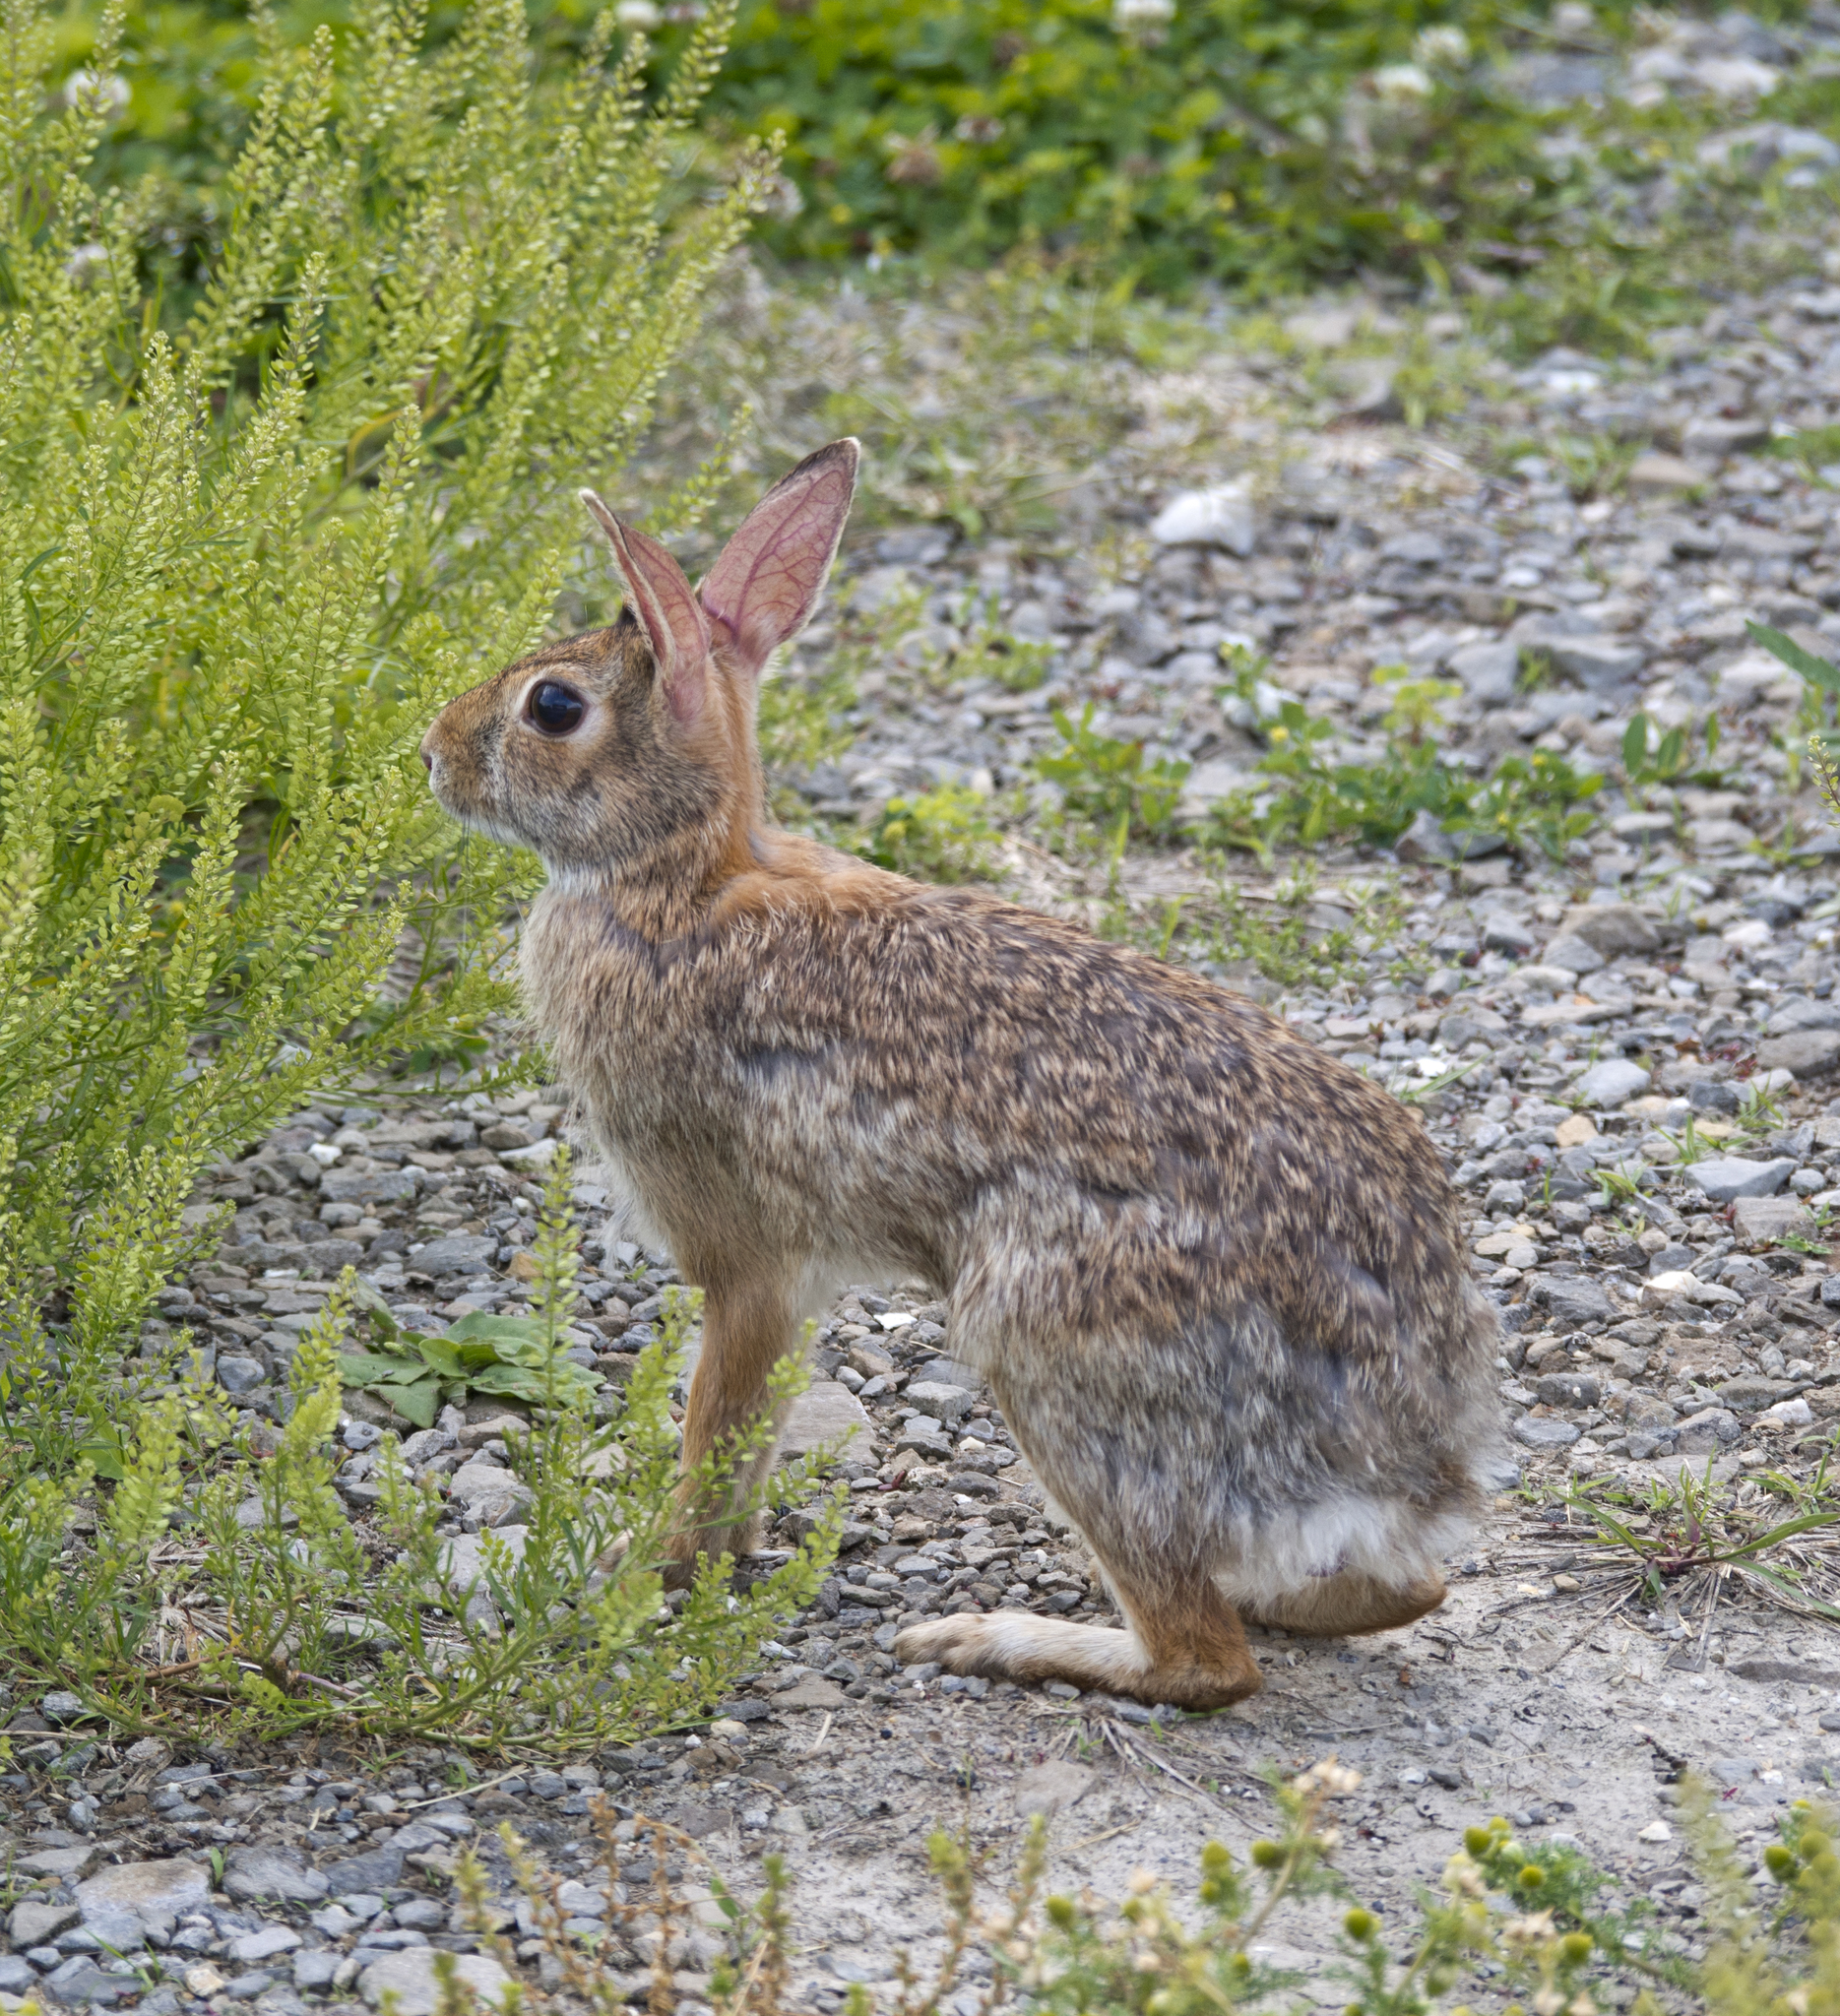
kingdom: Animalia
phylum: Chordata
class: Mammalia
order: Lagomorpha
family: Leporidae
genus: Sylvilagus
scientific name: Sylvilagus floridanus
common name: Eastern cottontail
